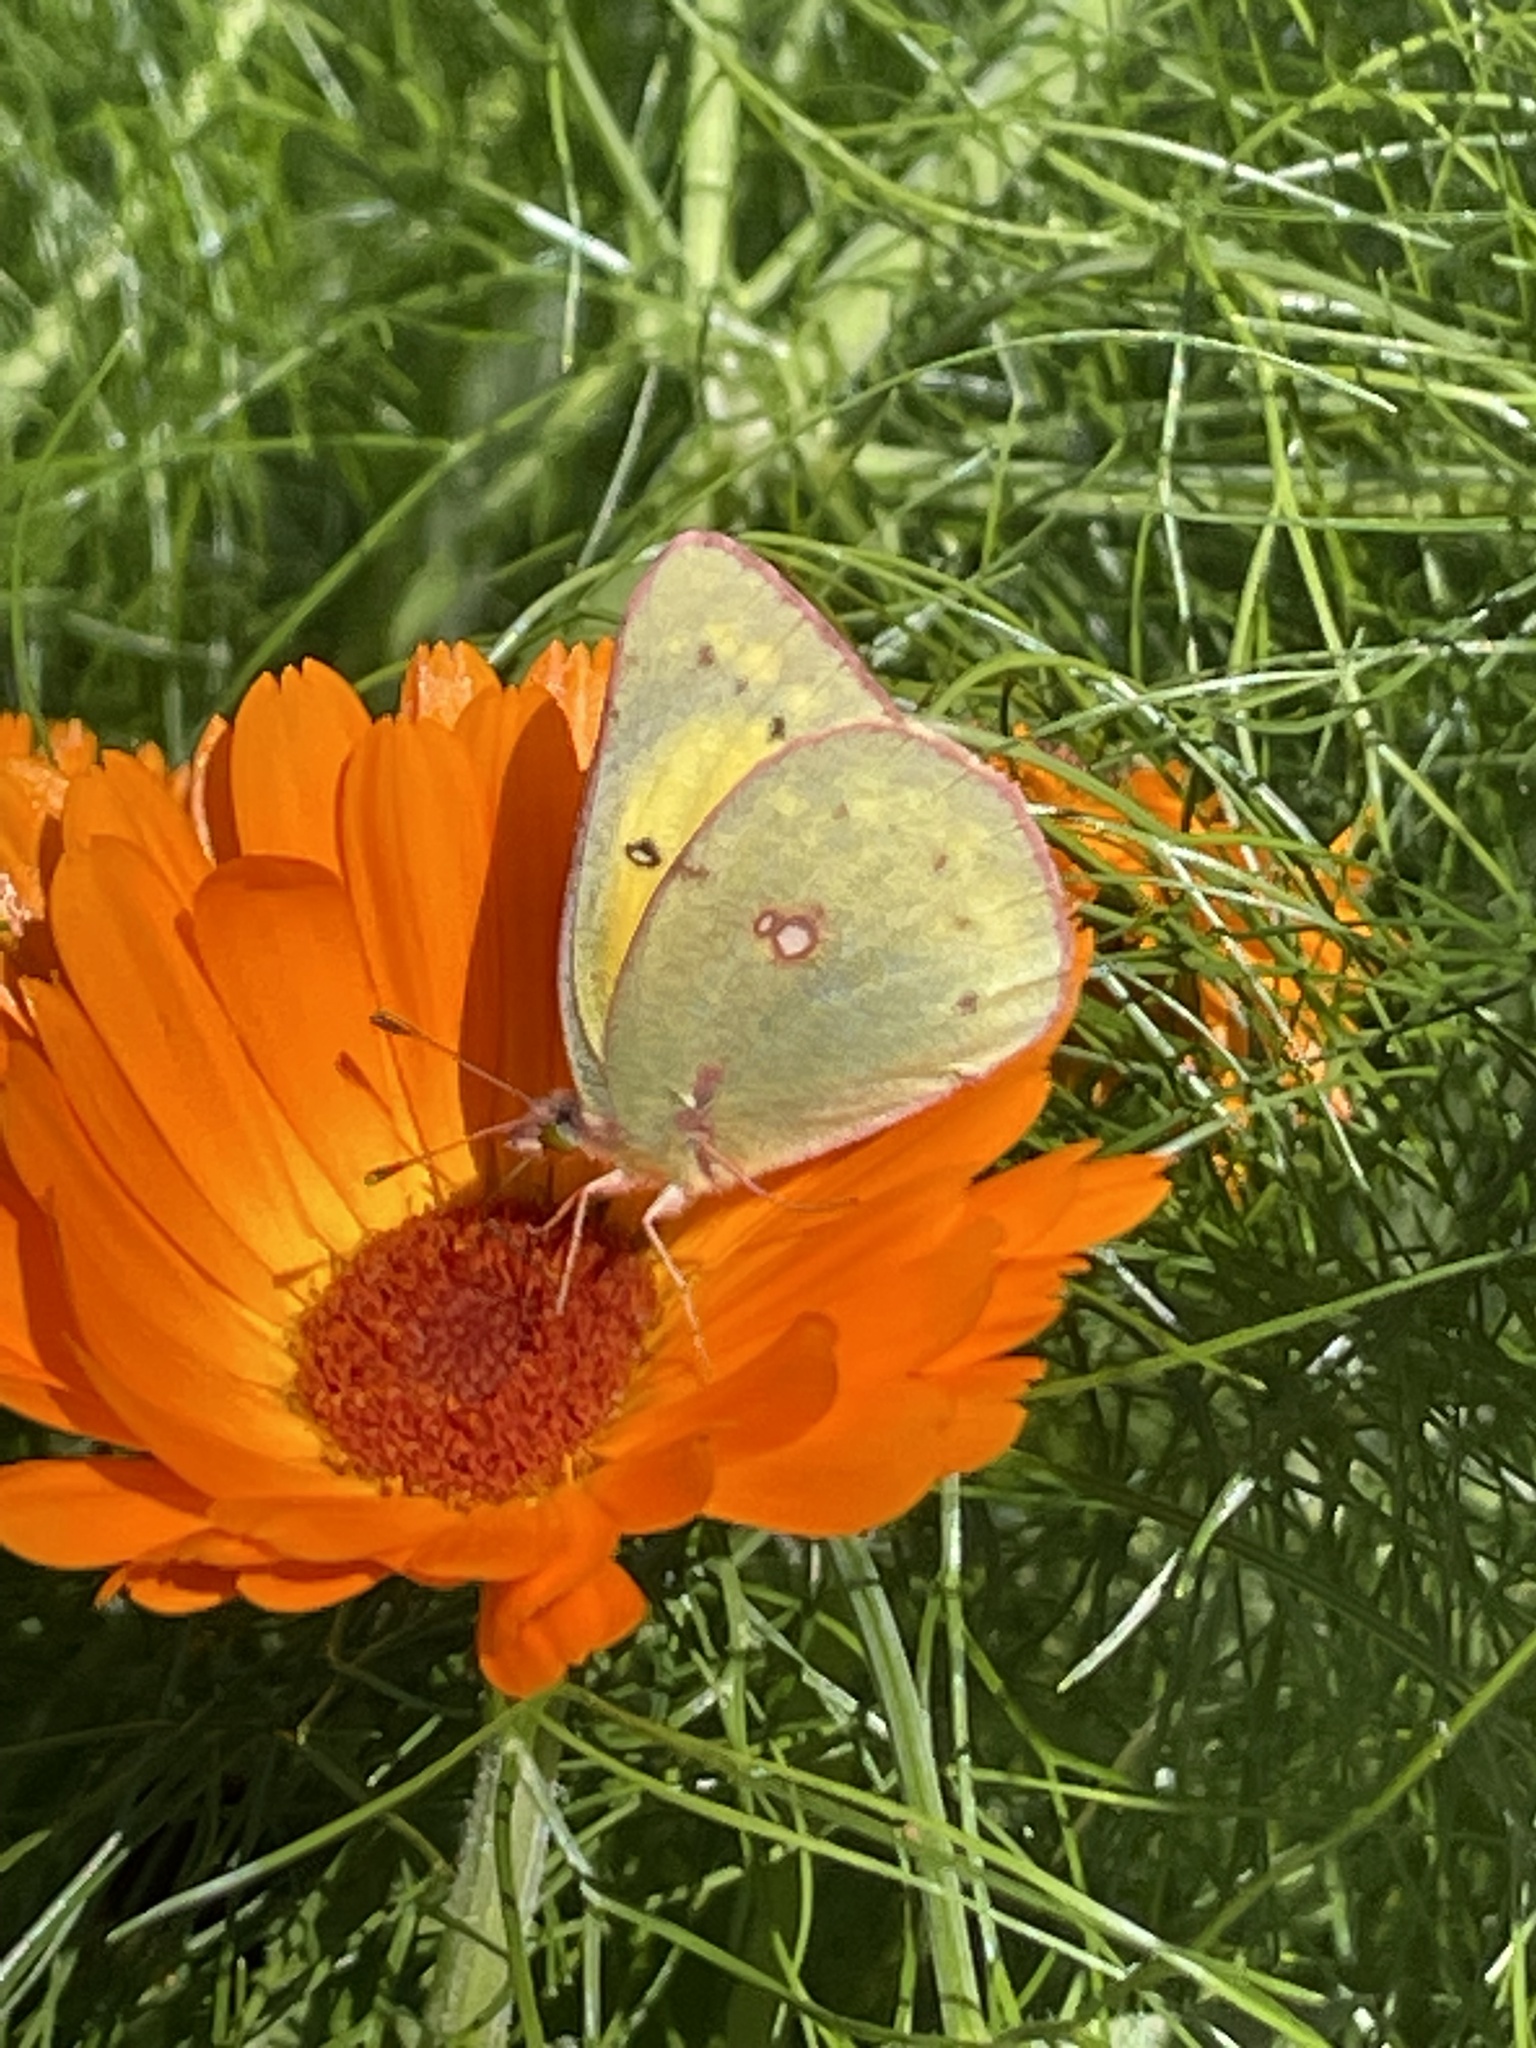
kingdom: Animalia
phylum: Arthropoda
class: Insecta
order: Lepidoptera
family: Pieridae
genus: Colias
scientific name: Colias eurytheme
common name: Alfalfa butterfly
